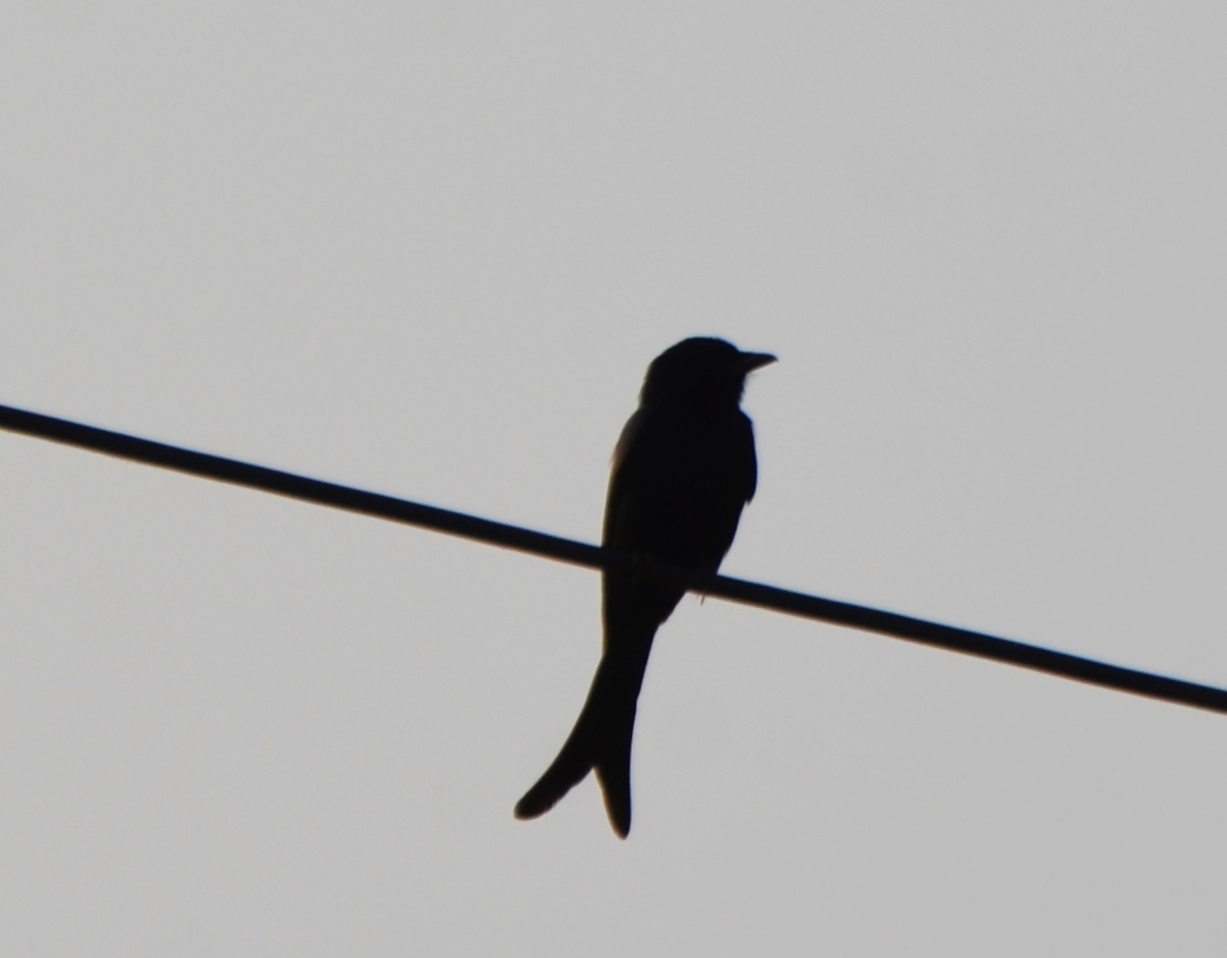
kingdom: Animalia
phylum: Chordata
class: Aves
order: Passeriformes
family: Dicruridae
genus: Dicrurus
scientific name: Dicrurus macrocercus
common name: Black drongo
